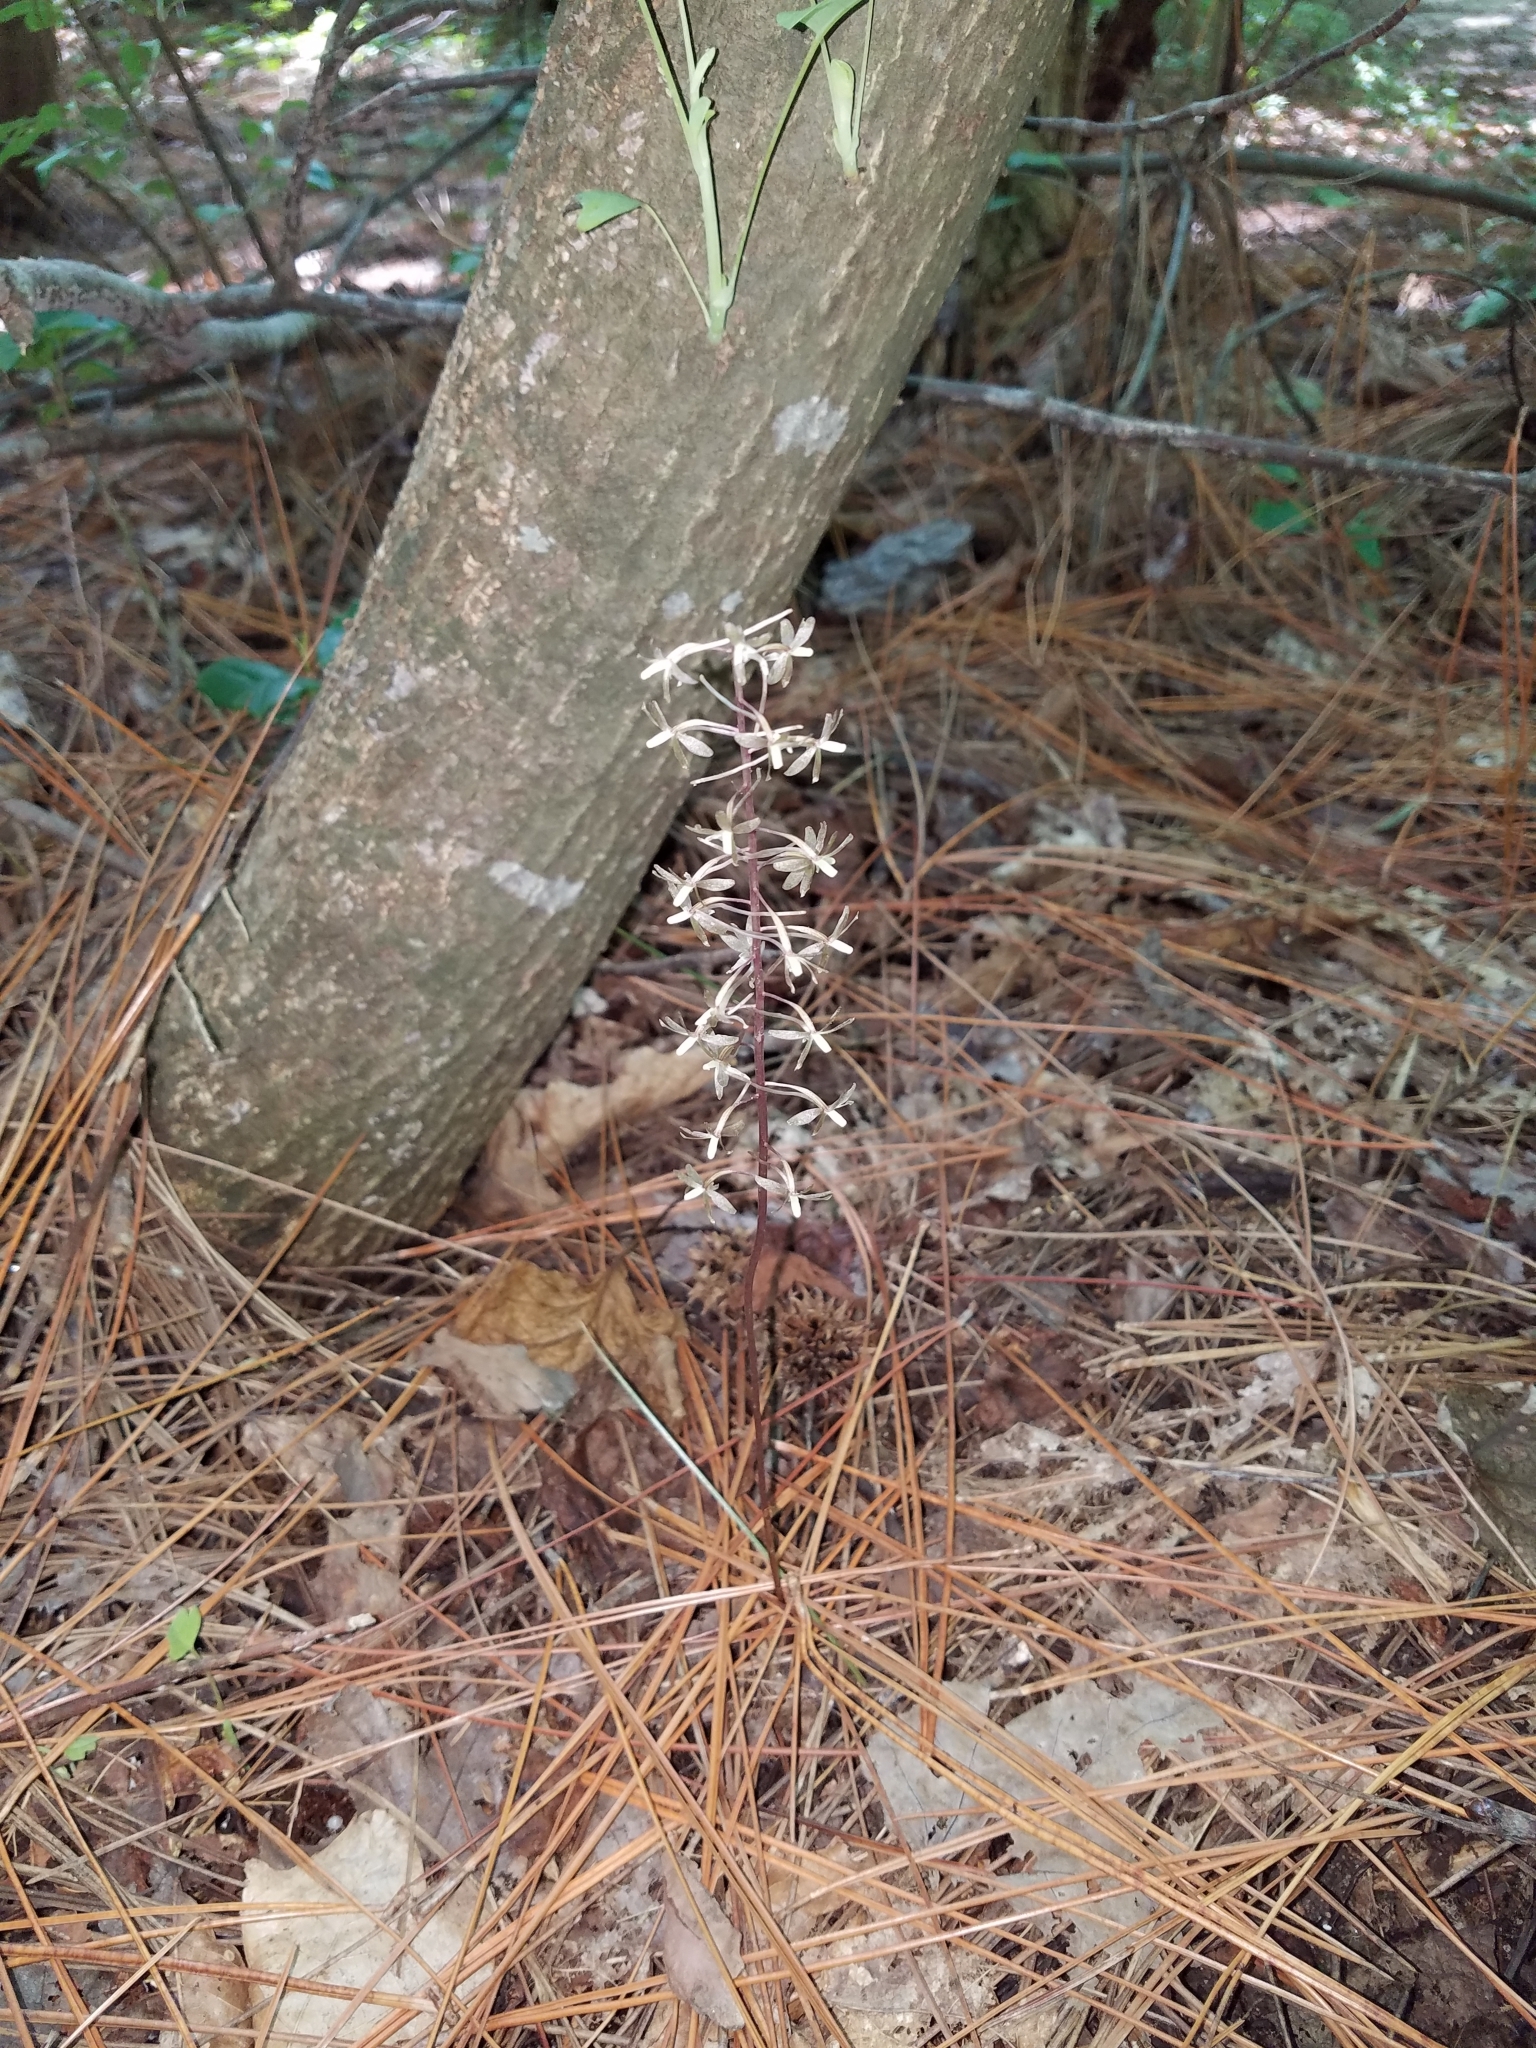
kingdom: Plantae
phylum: Tracheophyta
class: Liliopsida
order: Asparagales
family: Orchidaceae
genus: Tipularia
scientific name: Tipularia discolor
